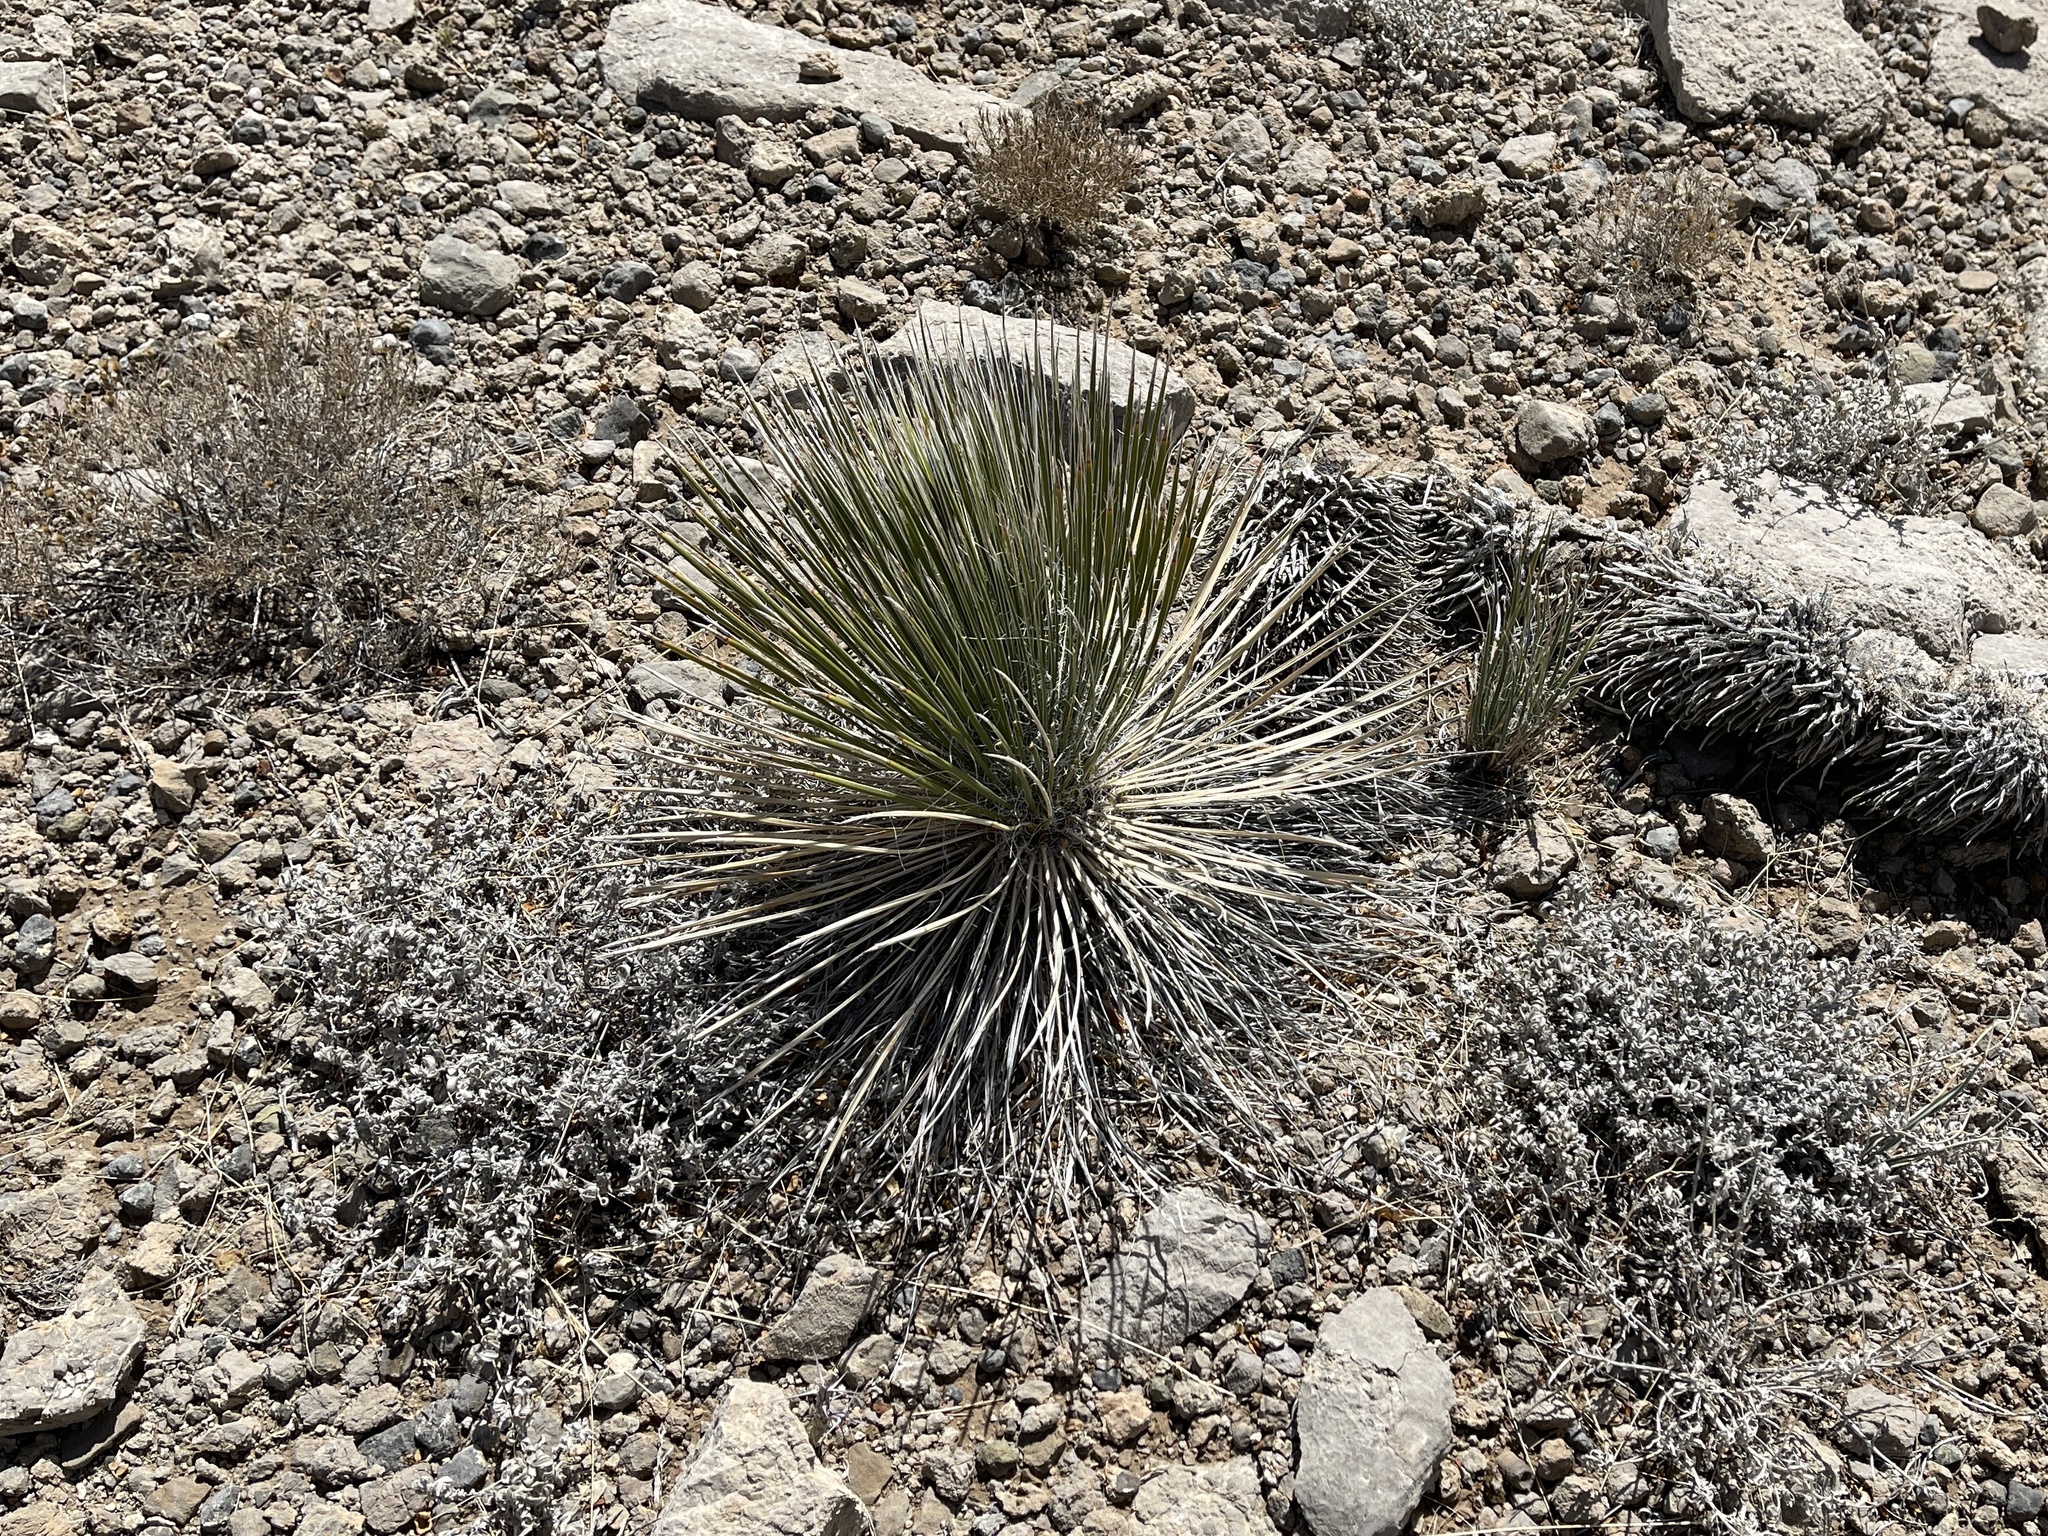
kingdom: Plantae
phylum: Tracheophyta
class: Liliopsida
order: Asparagales
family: Asparagaceae
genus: Yucca
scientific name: Yucca elata
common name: Palmella
